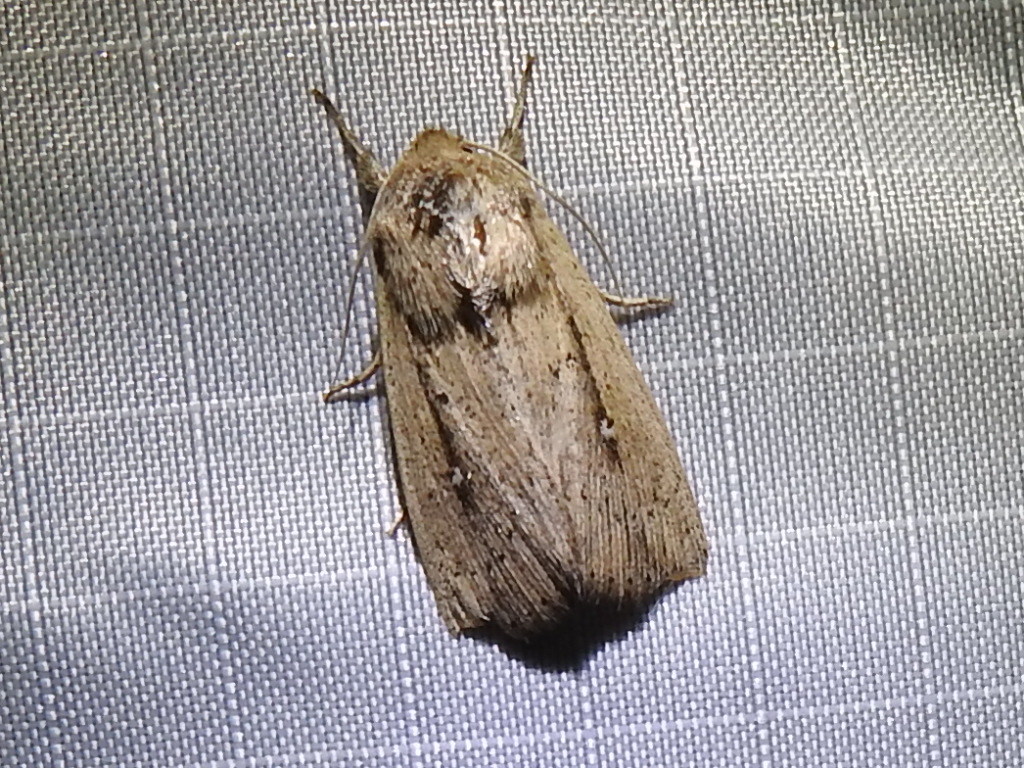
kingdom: Animalia
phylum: Arthropoda
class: Insecta
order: Lepidoptera
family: Noctuidae
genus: Leucania
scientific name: Leucania incognita
